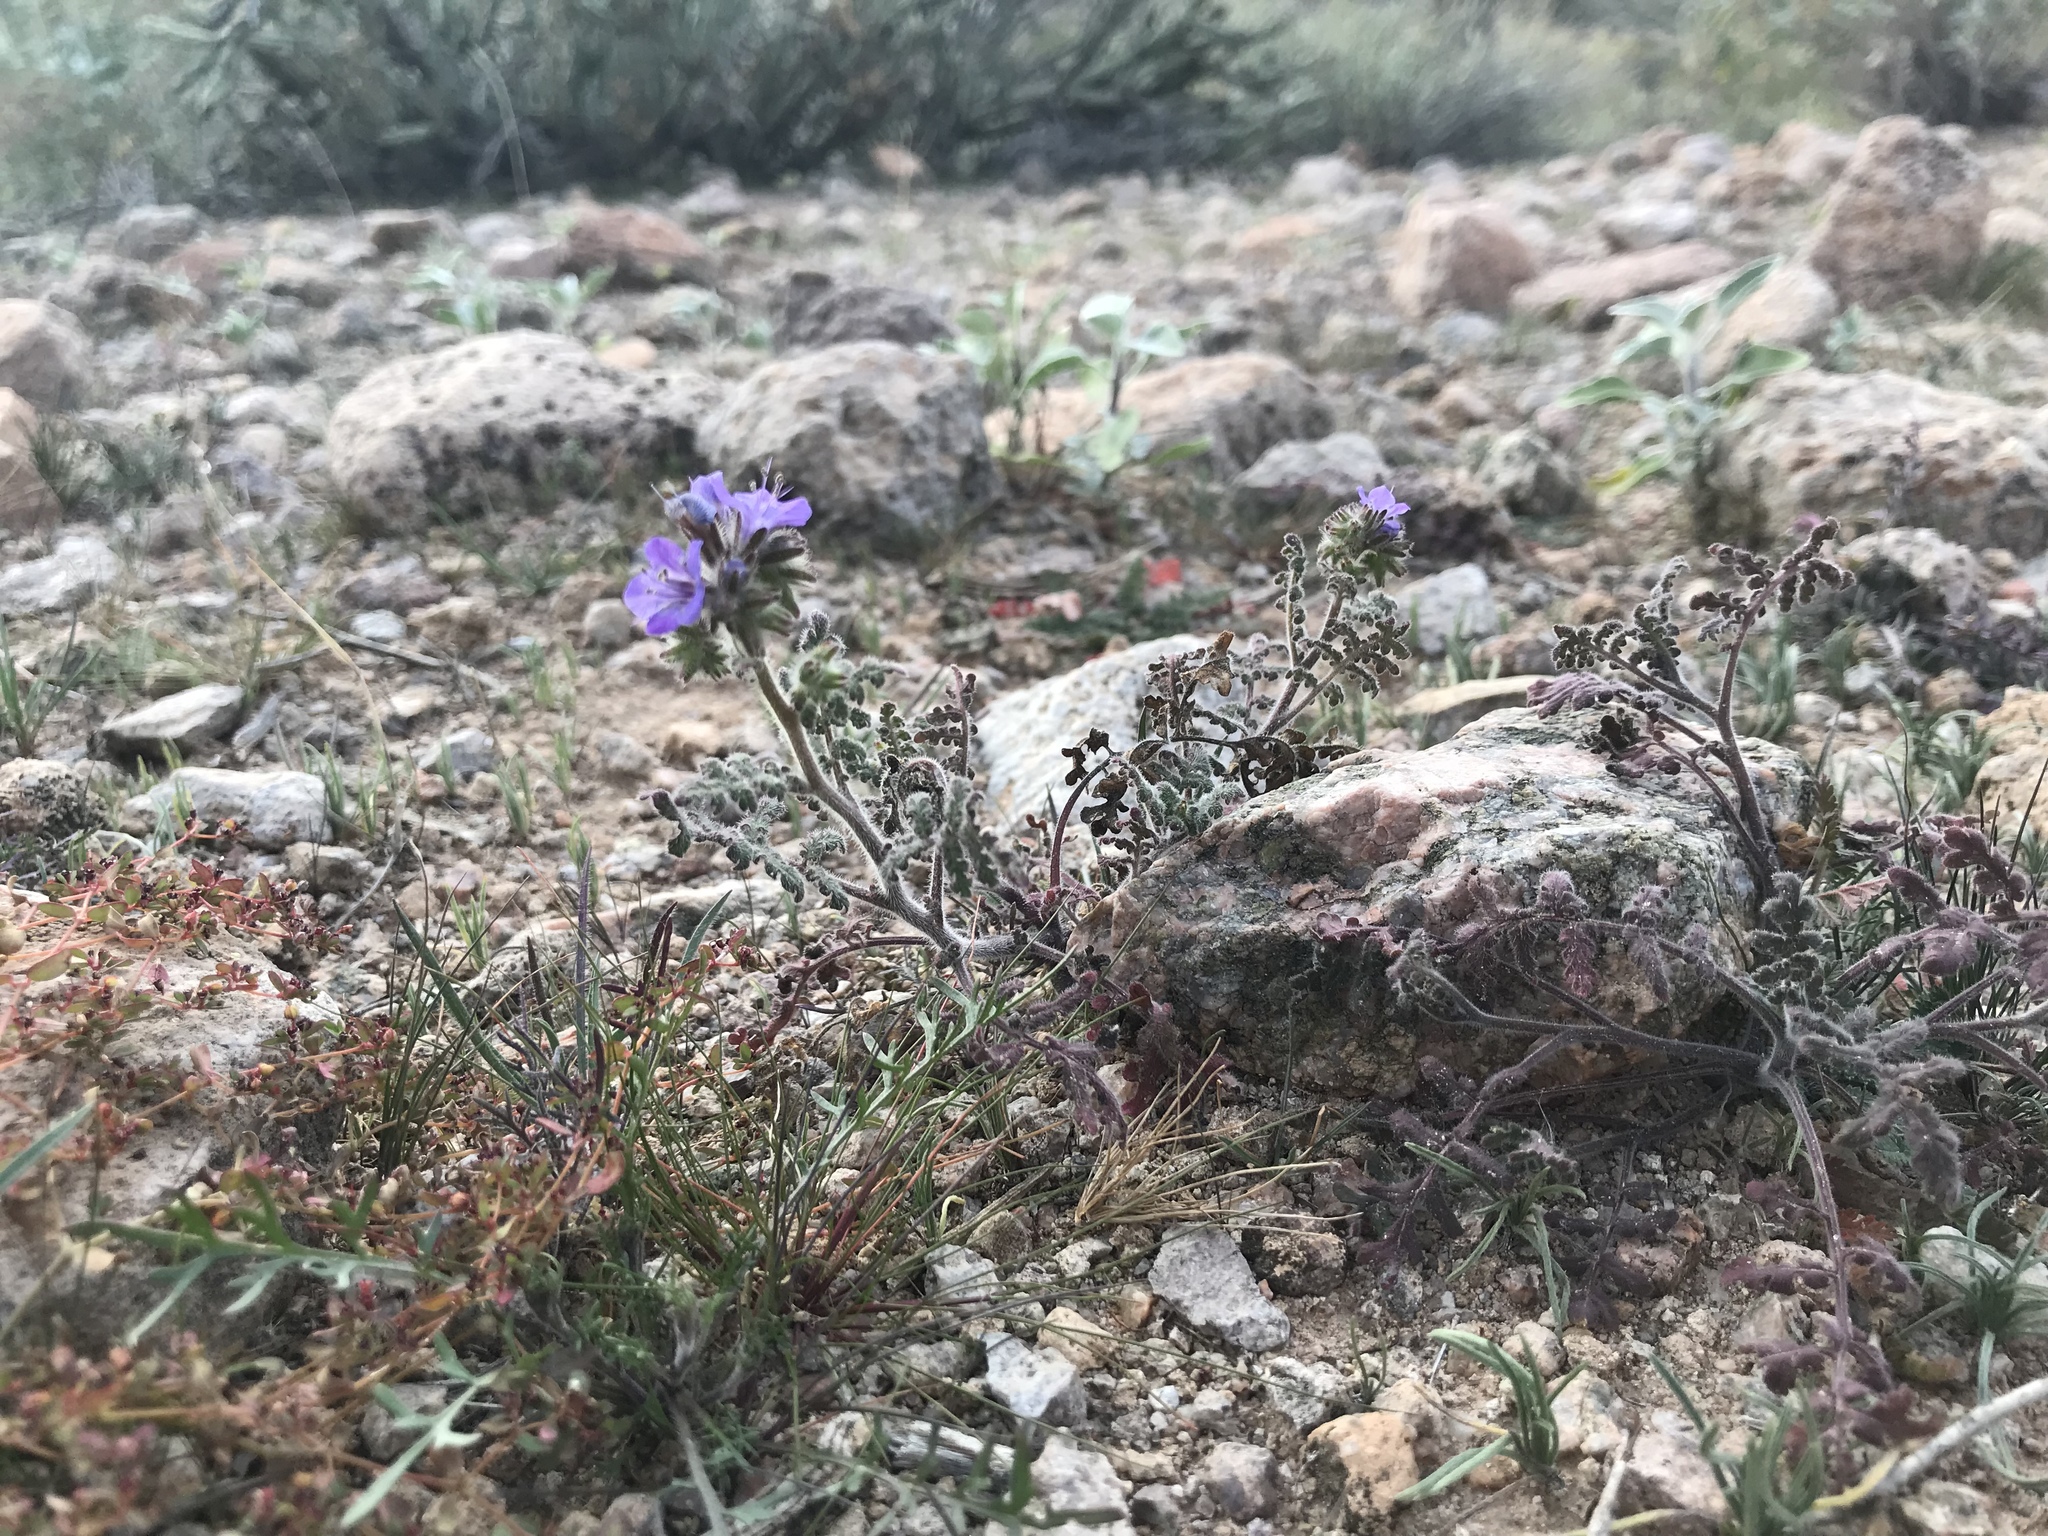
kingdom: Plantae
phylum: Tracheophyta
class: Magnoliopsida
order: Boraginales
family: Hydrophyllaceae
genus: Phacelia
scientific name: Phacelia distans
